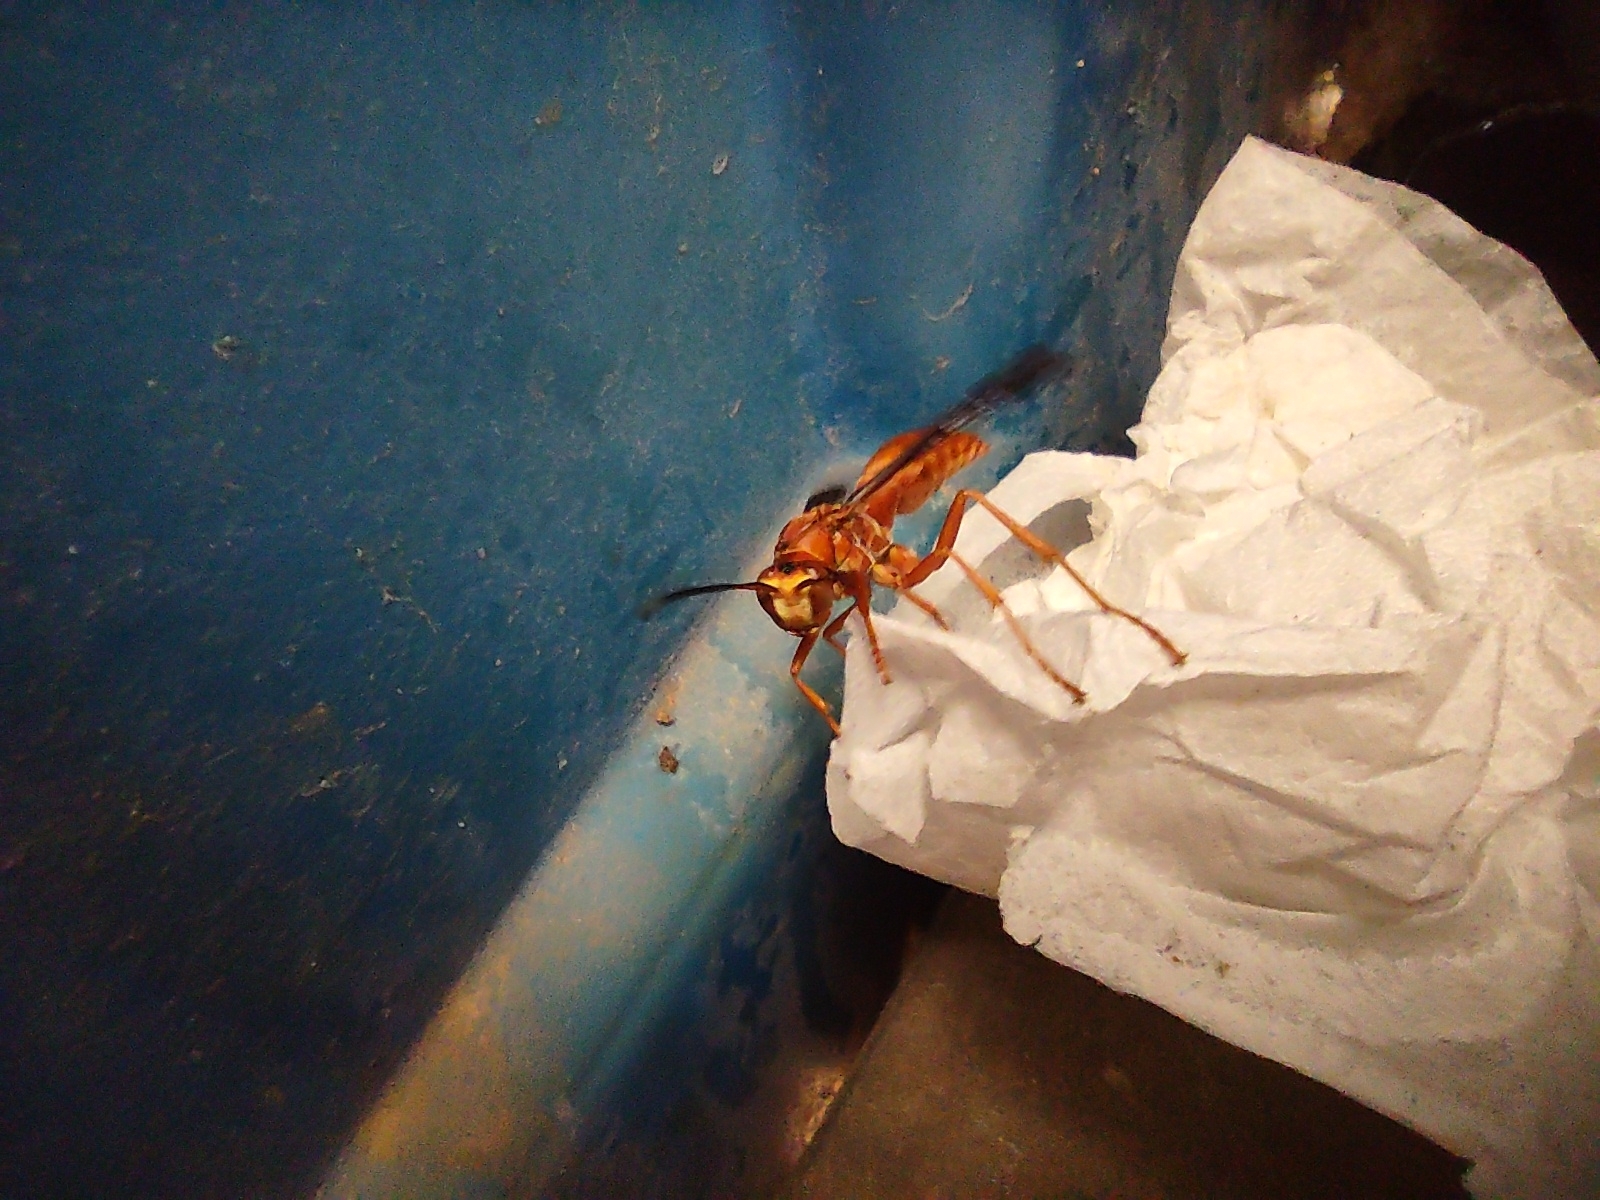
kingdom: Animalia
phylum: Arthropoda
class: Insecta
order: Hymenoptera
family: Vespidae
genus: Fuscopolistes
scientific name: Fuscopolistes
